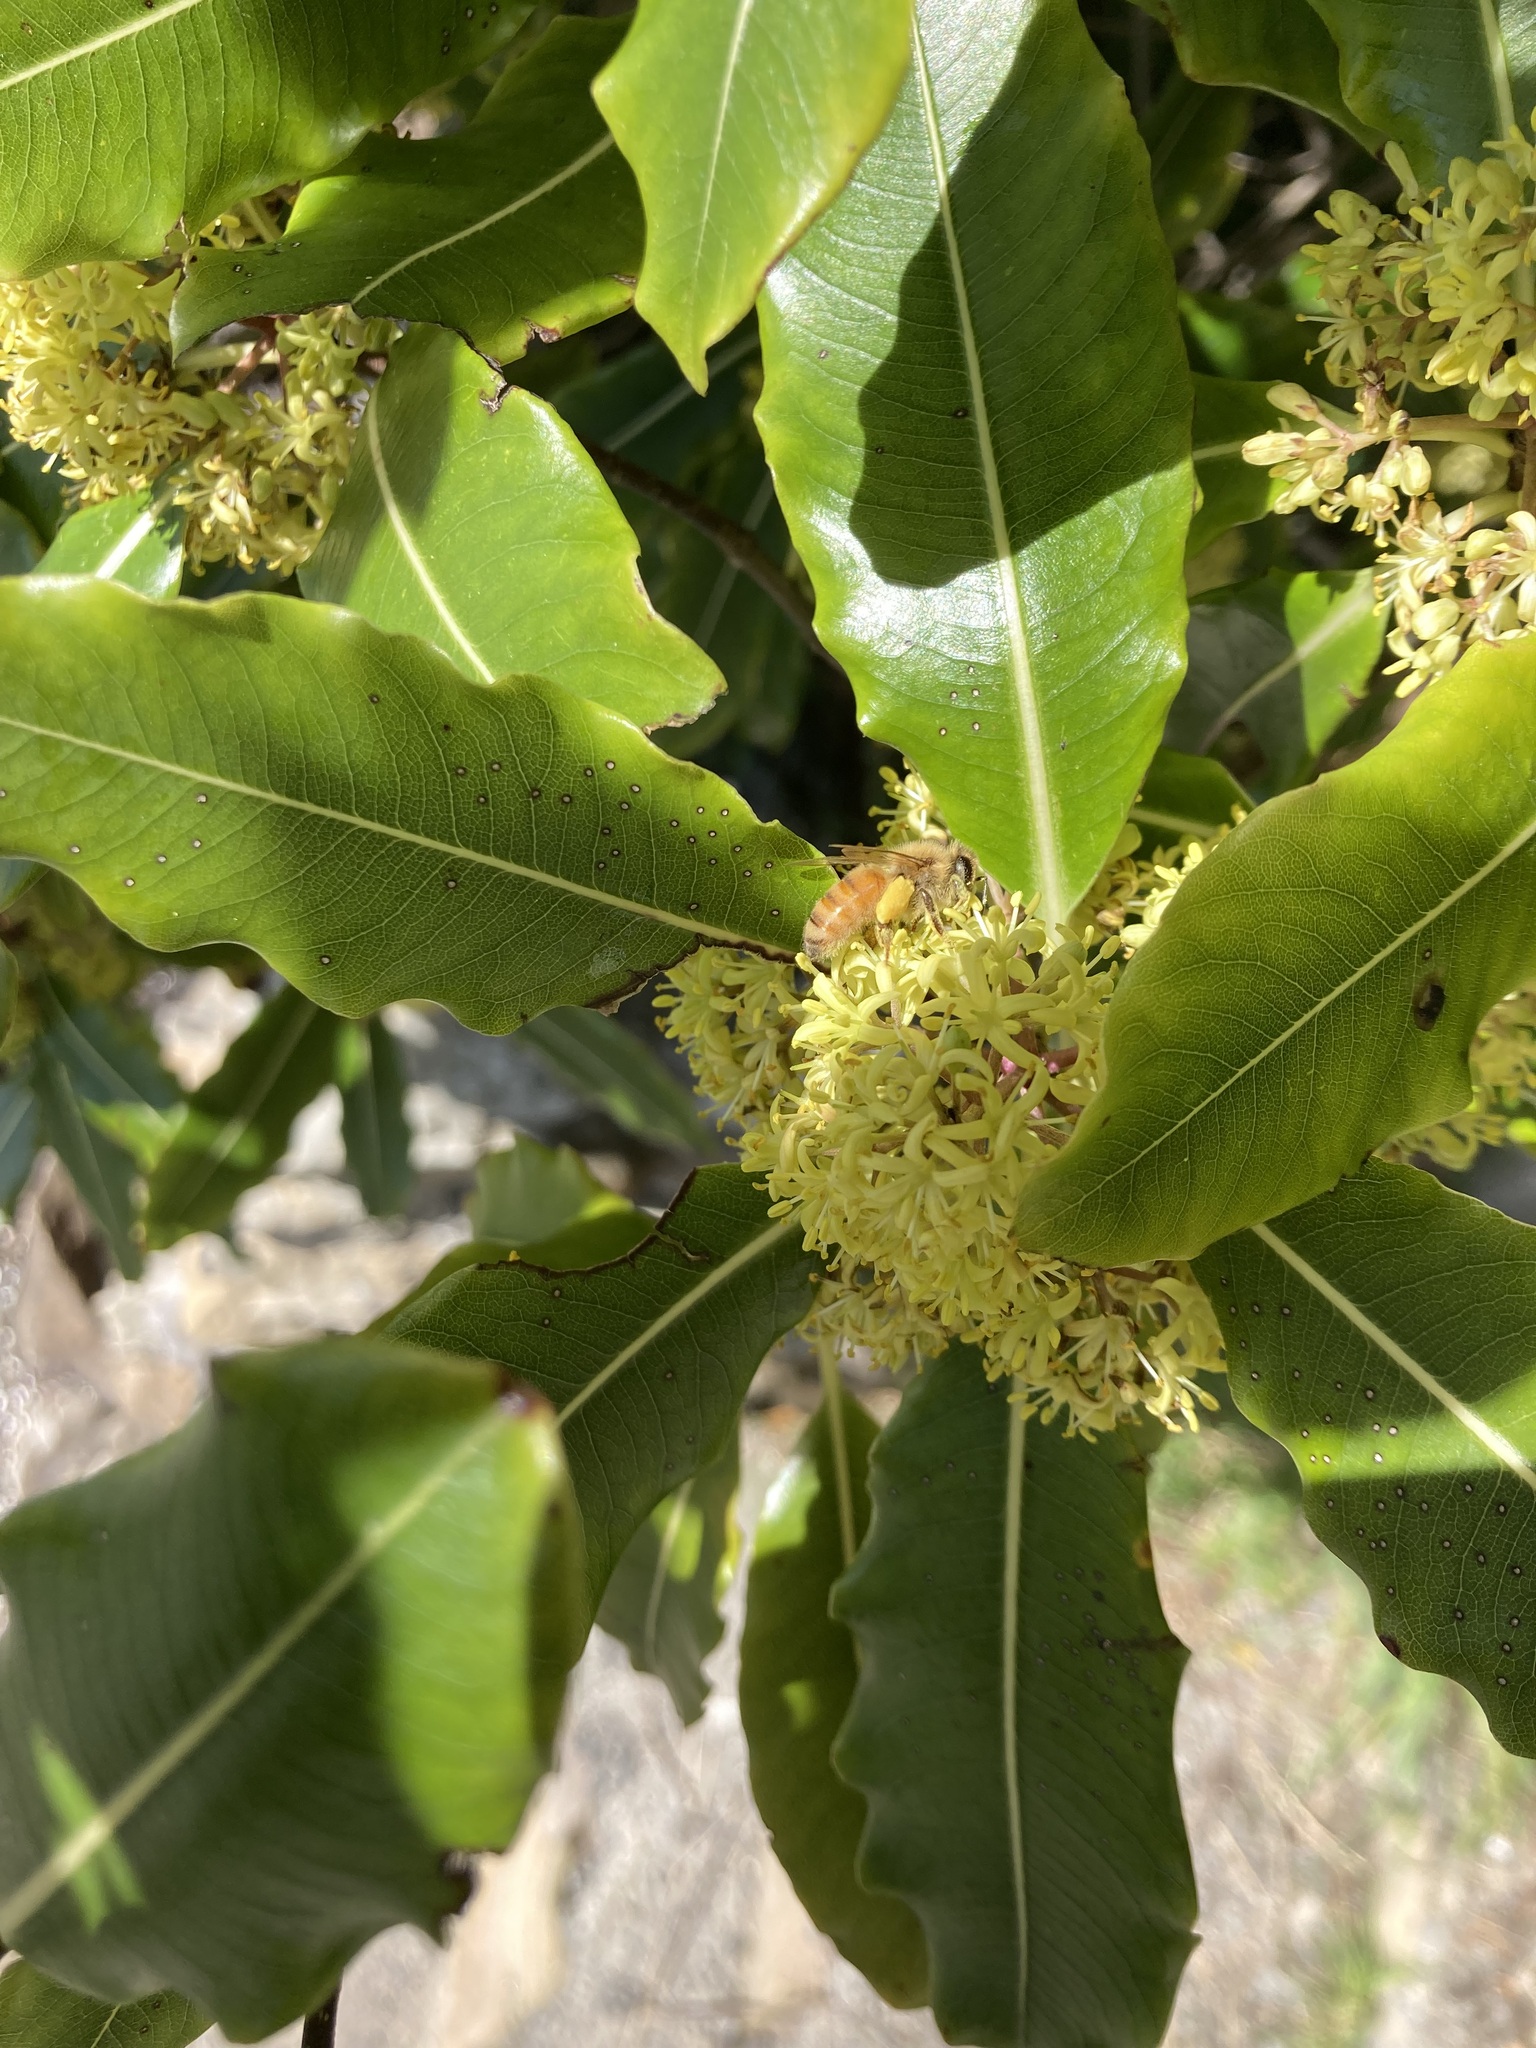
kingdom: Animalia
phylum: Arthropoda
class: Insecta
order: Hymenoptera
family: Apidae
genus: Apis
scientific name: Apis mellifera
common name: Honey bee
